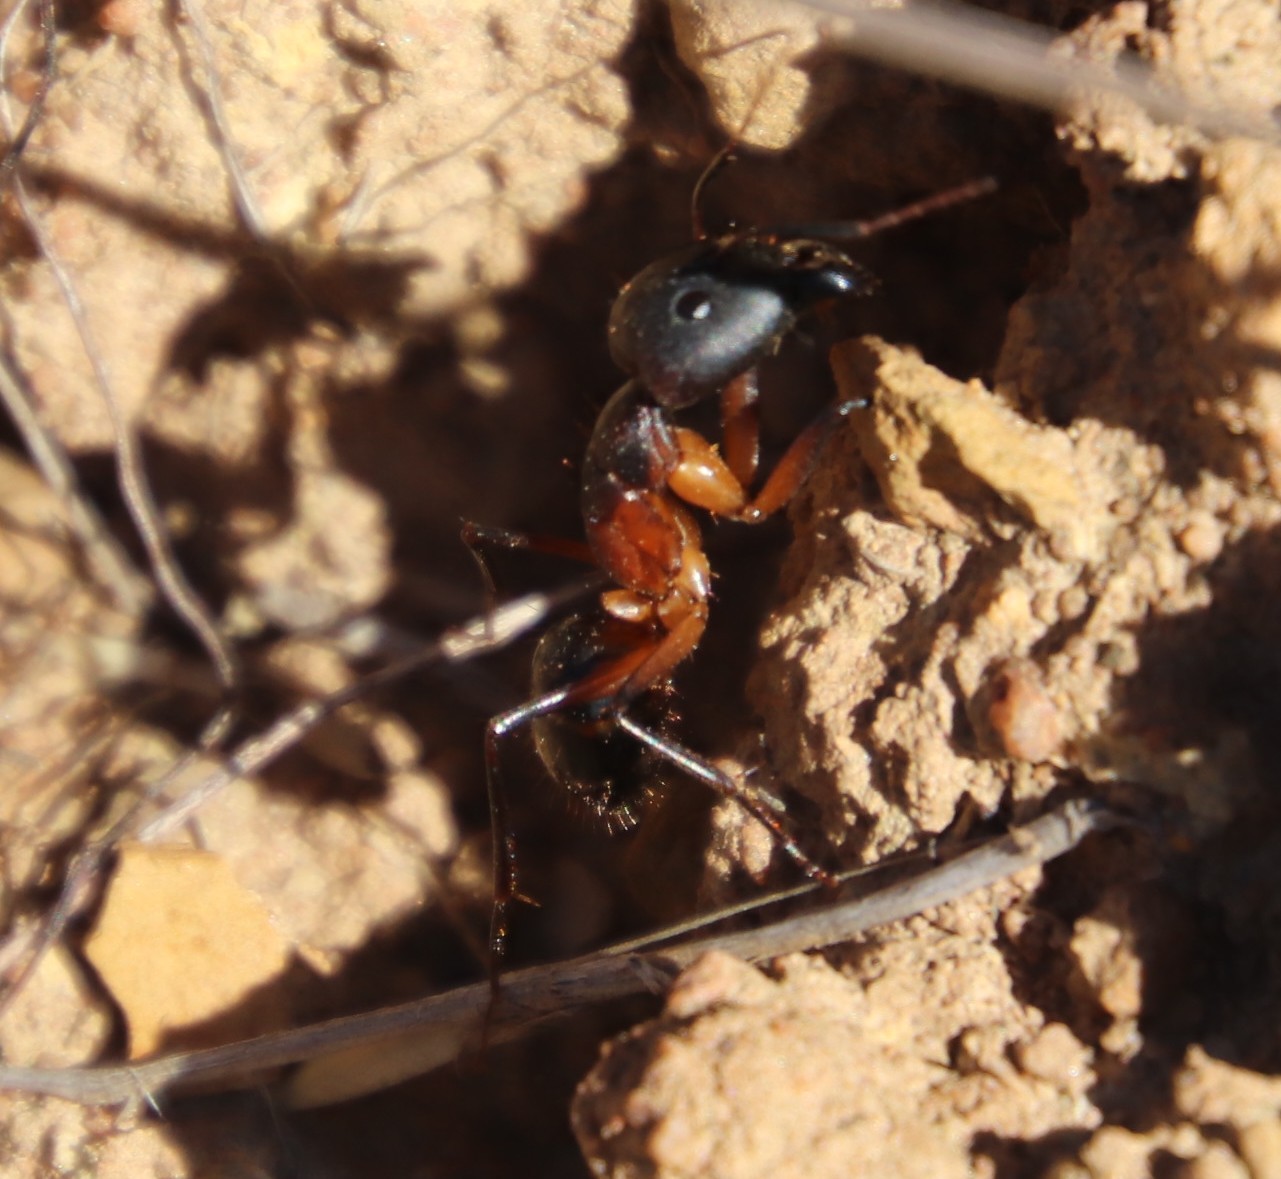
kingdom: Animalia
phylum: Arthropoda
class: Insecta
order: Hymenoptera
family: Formicidae
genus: Camponotus
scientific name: Camponotus baynei
